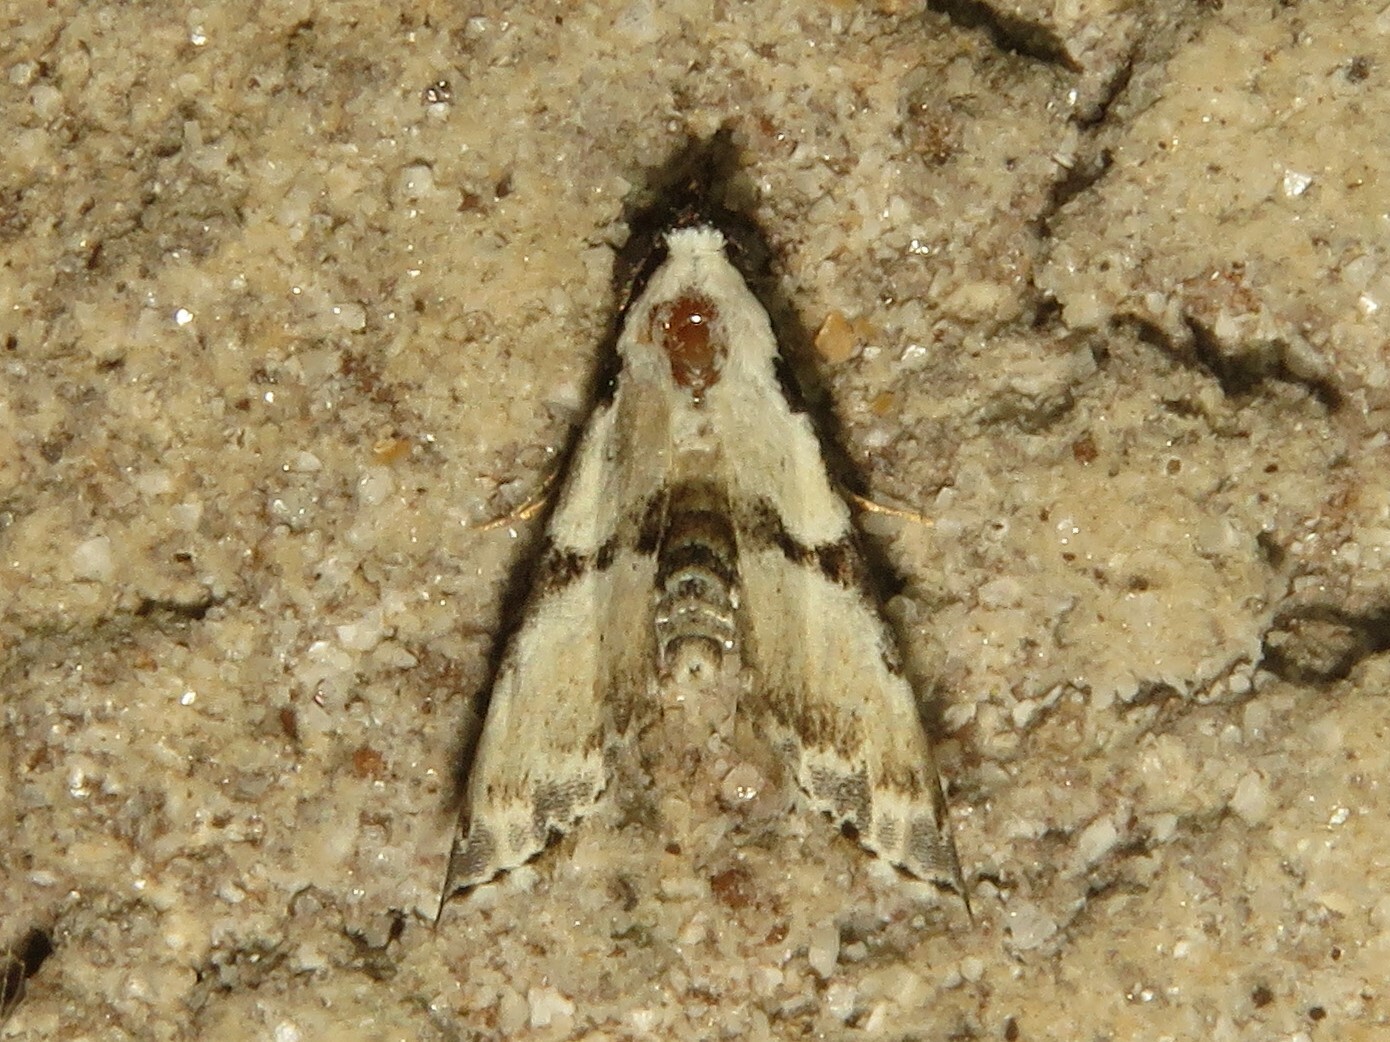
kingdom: Animalia
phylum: Arthropoda
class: Insecta
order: Lepidoptera
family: Noctuidae
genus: Nigetia
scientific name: Nigetia formosalis
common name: Thin-winged owlet
